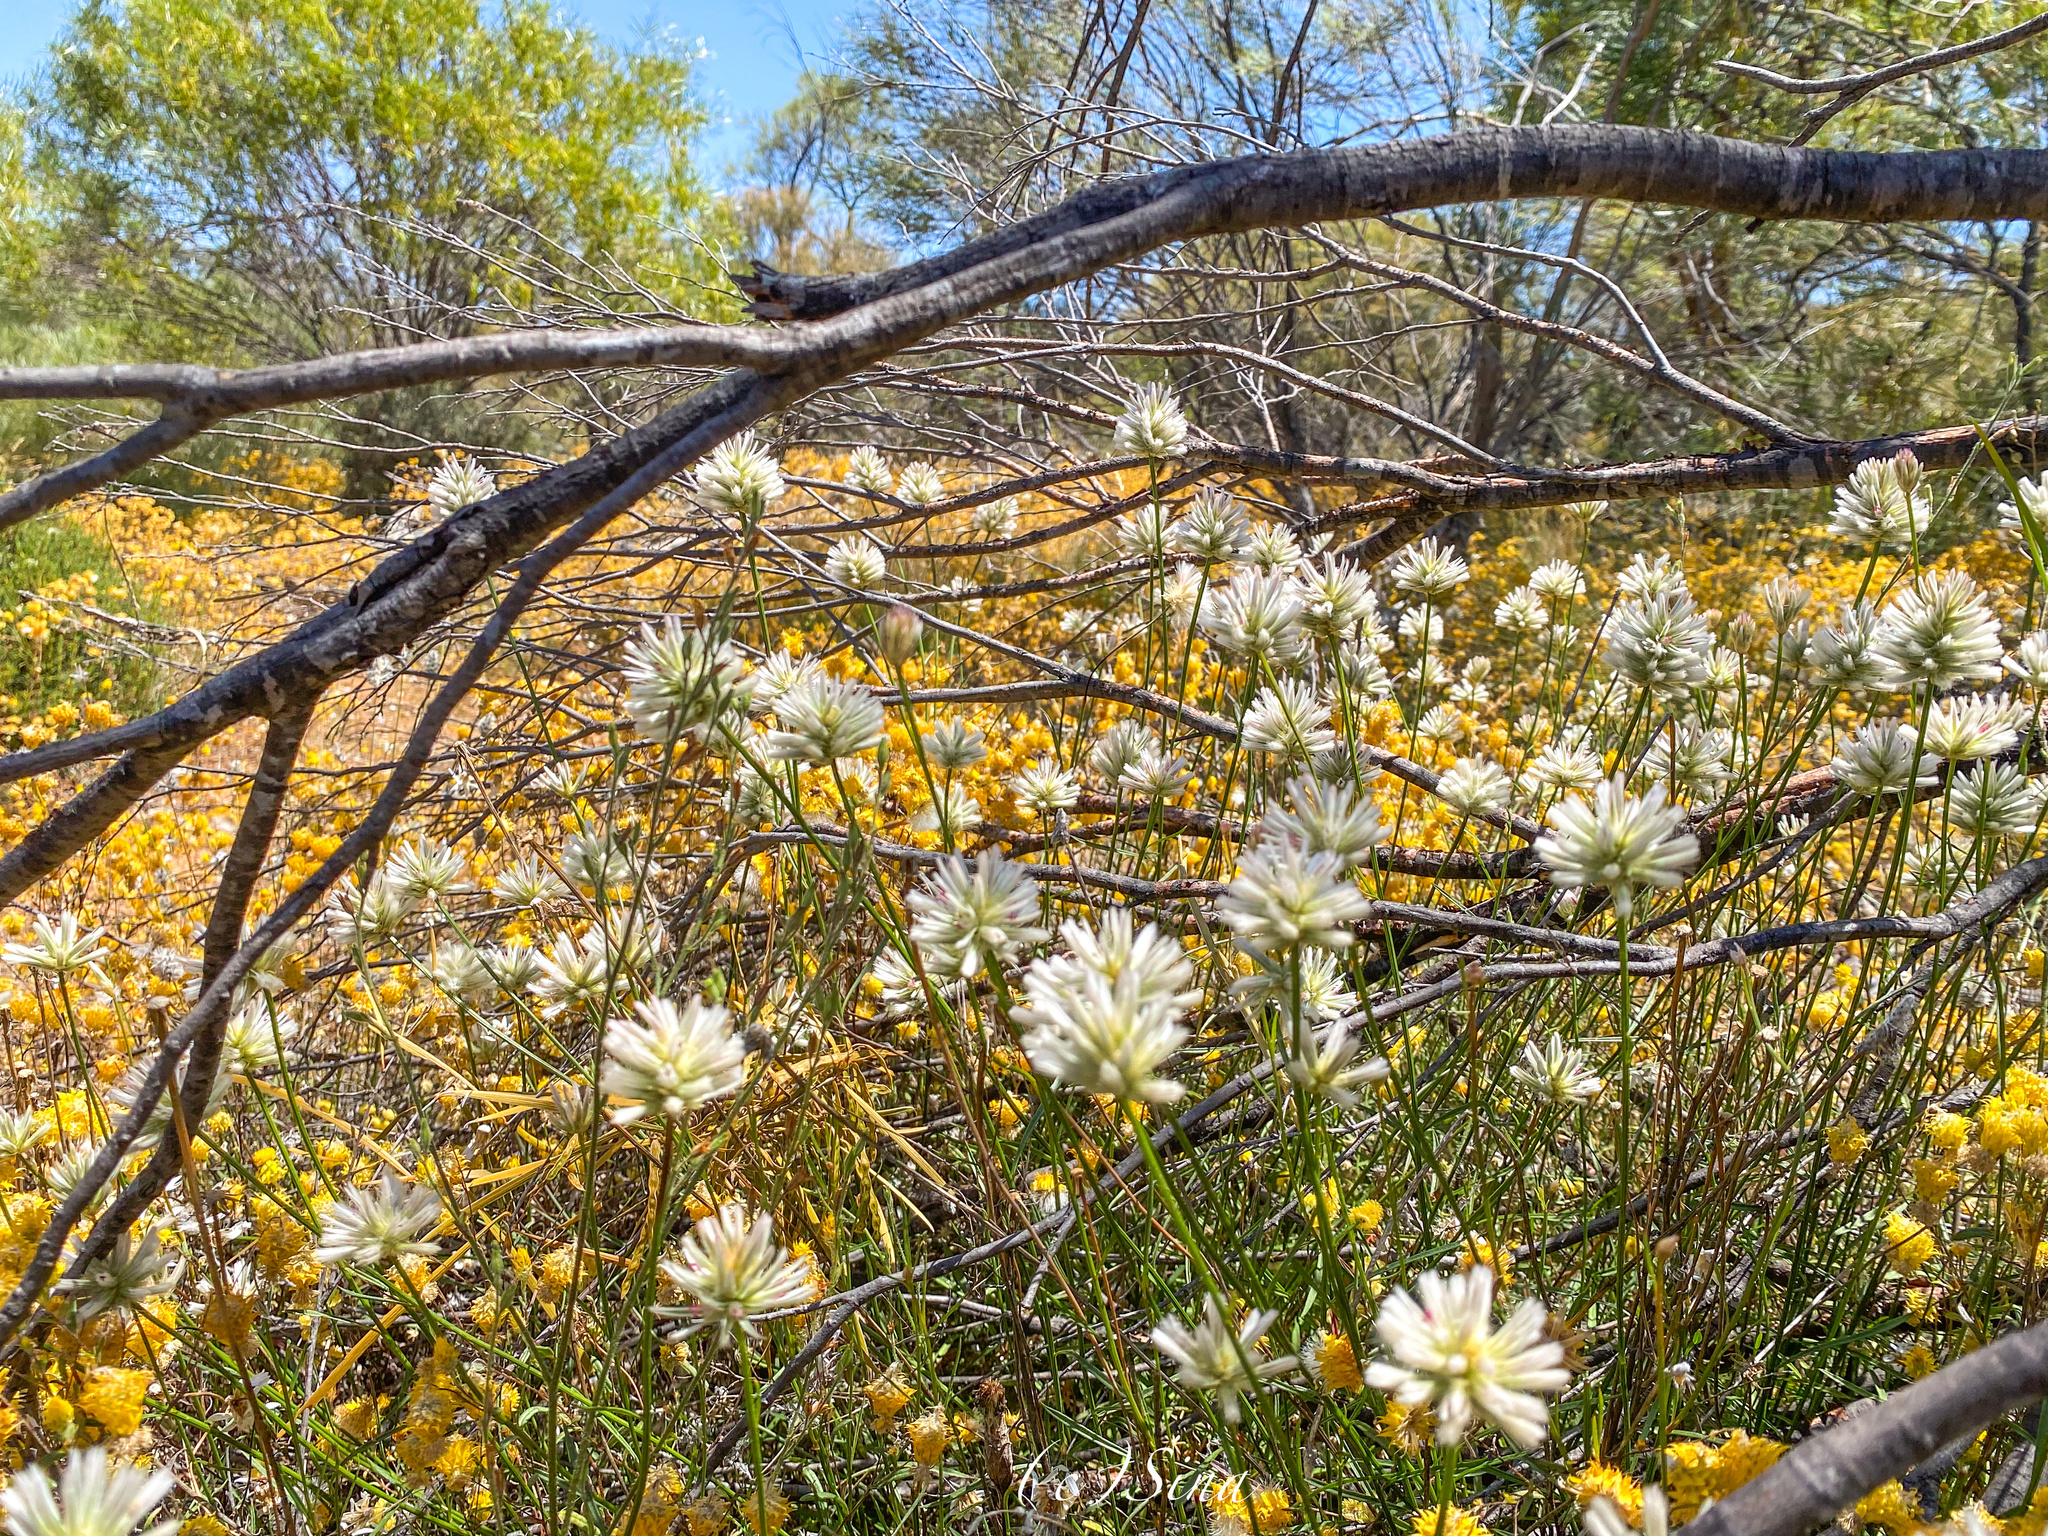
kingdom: Plantae
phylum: Tracheophyta
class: Magnoliopsida
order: Caryophyllales
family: Amaranthaceae
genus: Ptilotus
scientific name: Ptilotus benlii
